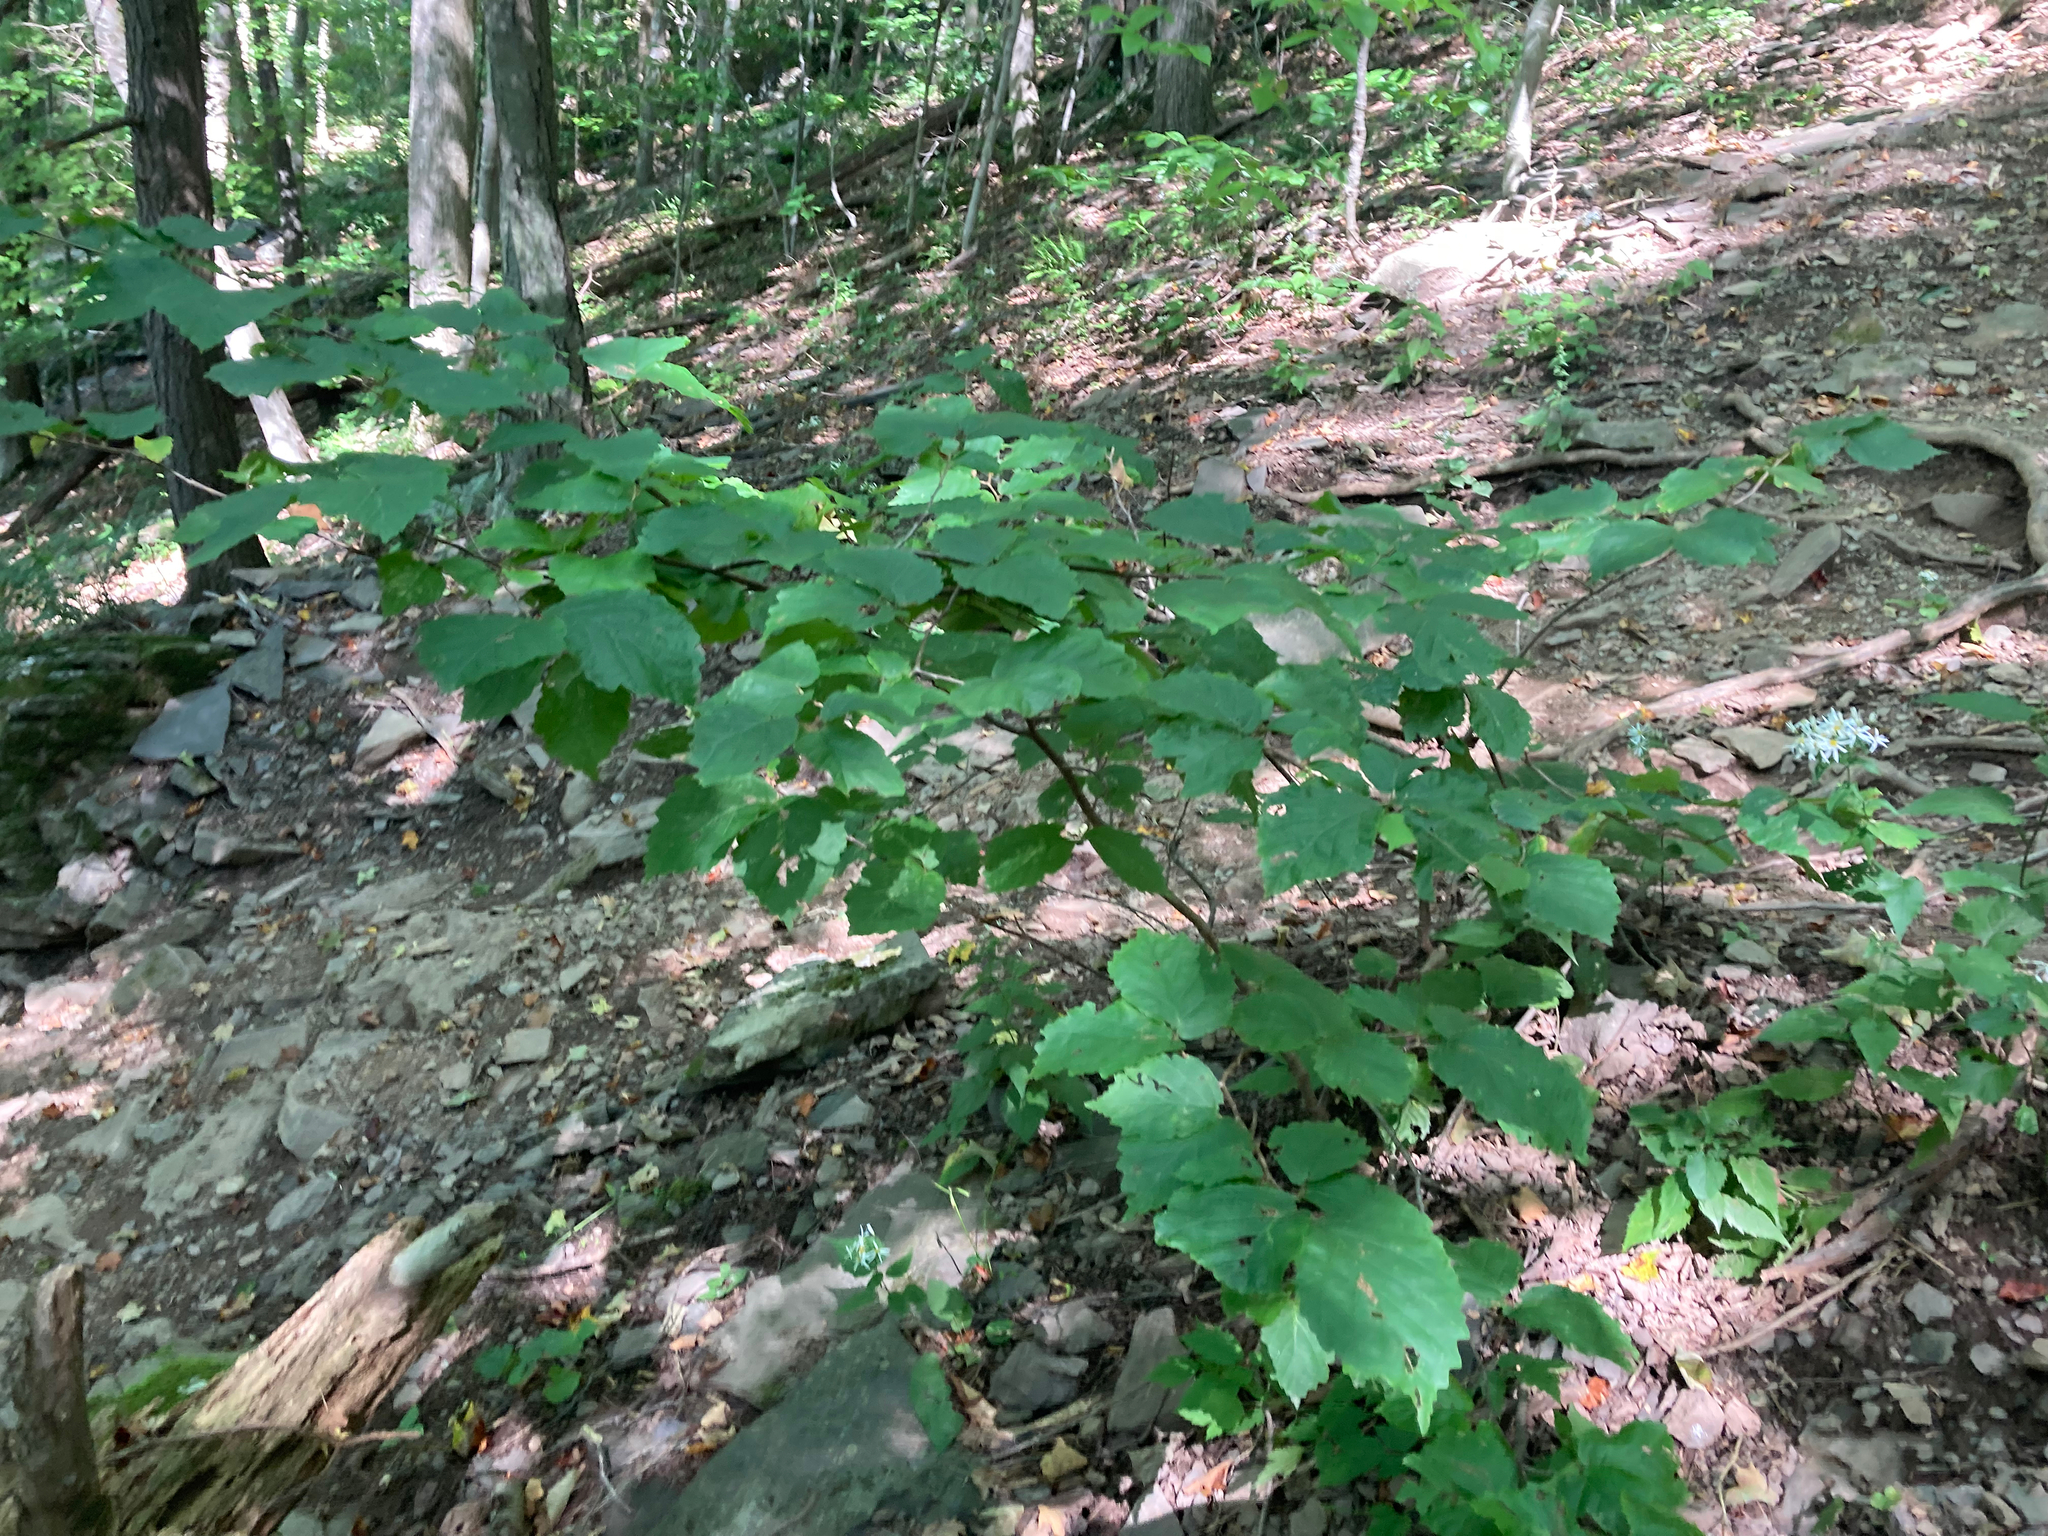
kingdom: Plantae
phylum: Tracheophyta
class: Magnoliopsida
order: Saxifragales
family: Hamamelidaceae
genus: Hamamelis
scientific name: Hamamelis virginiana
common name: Witch-hazel
